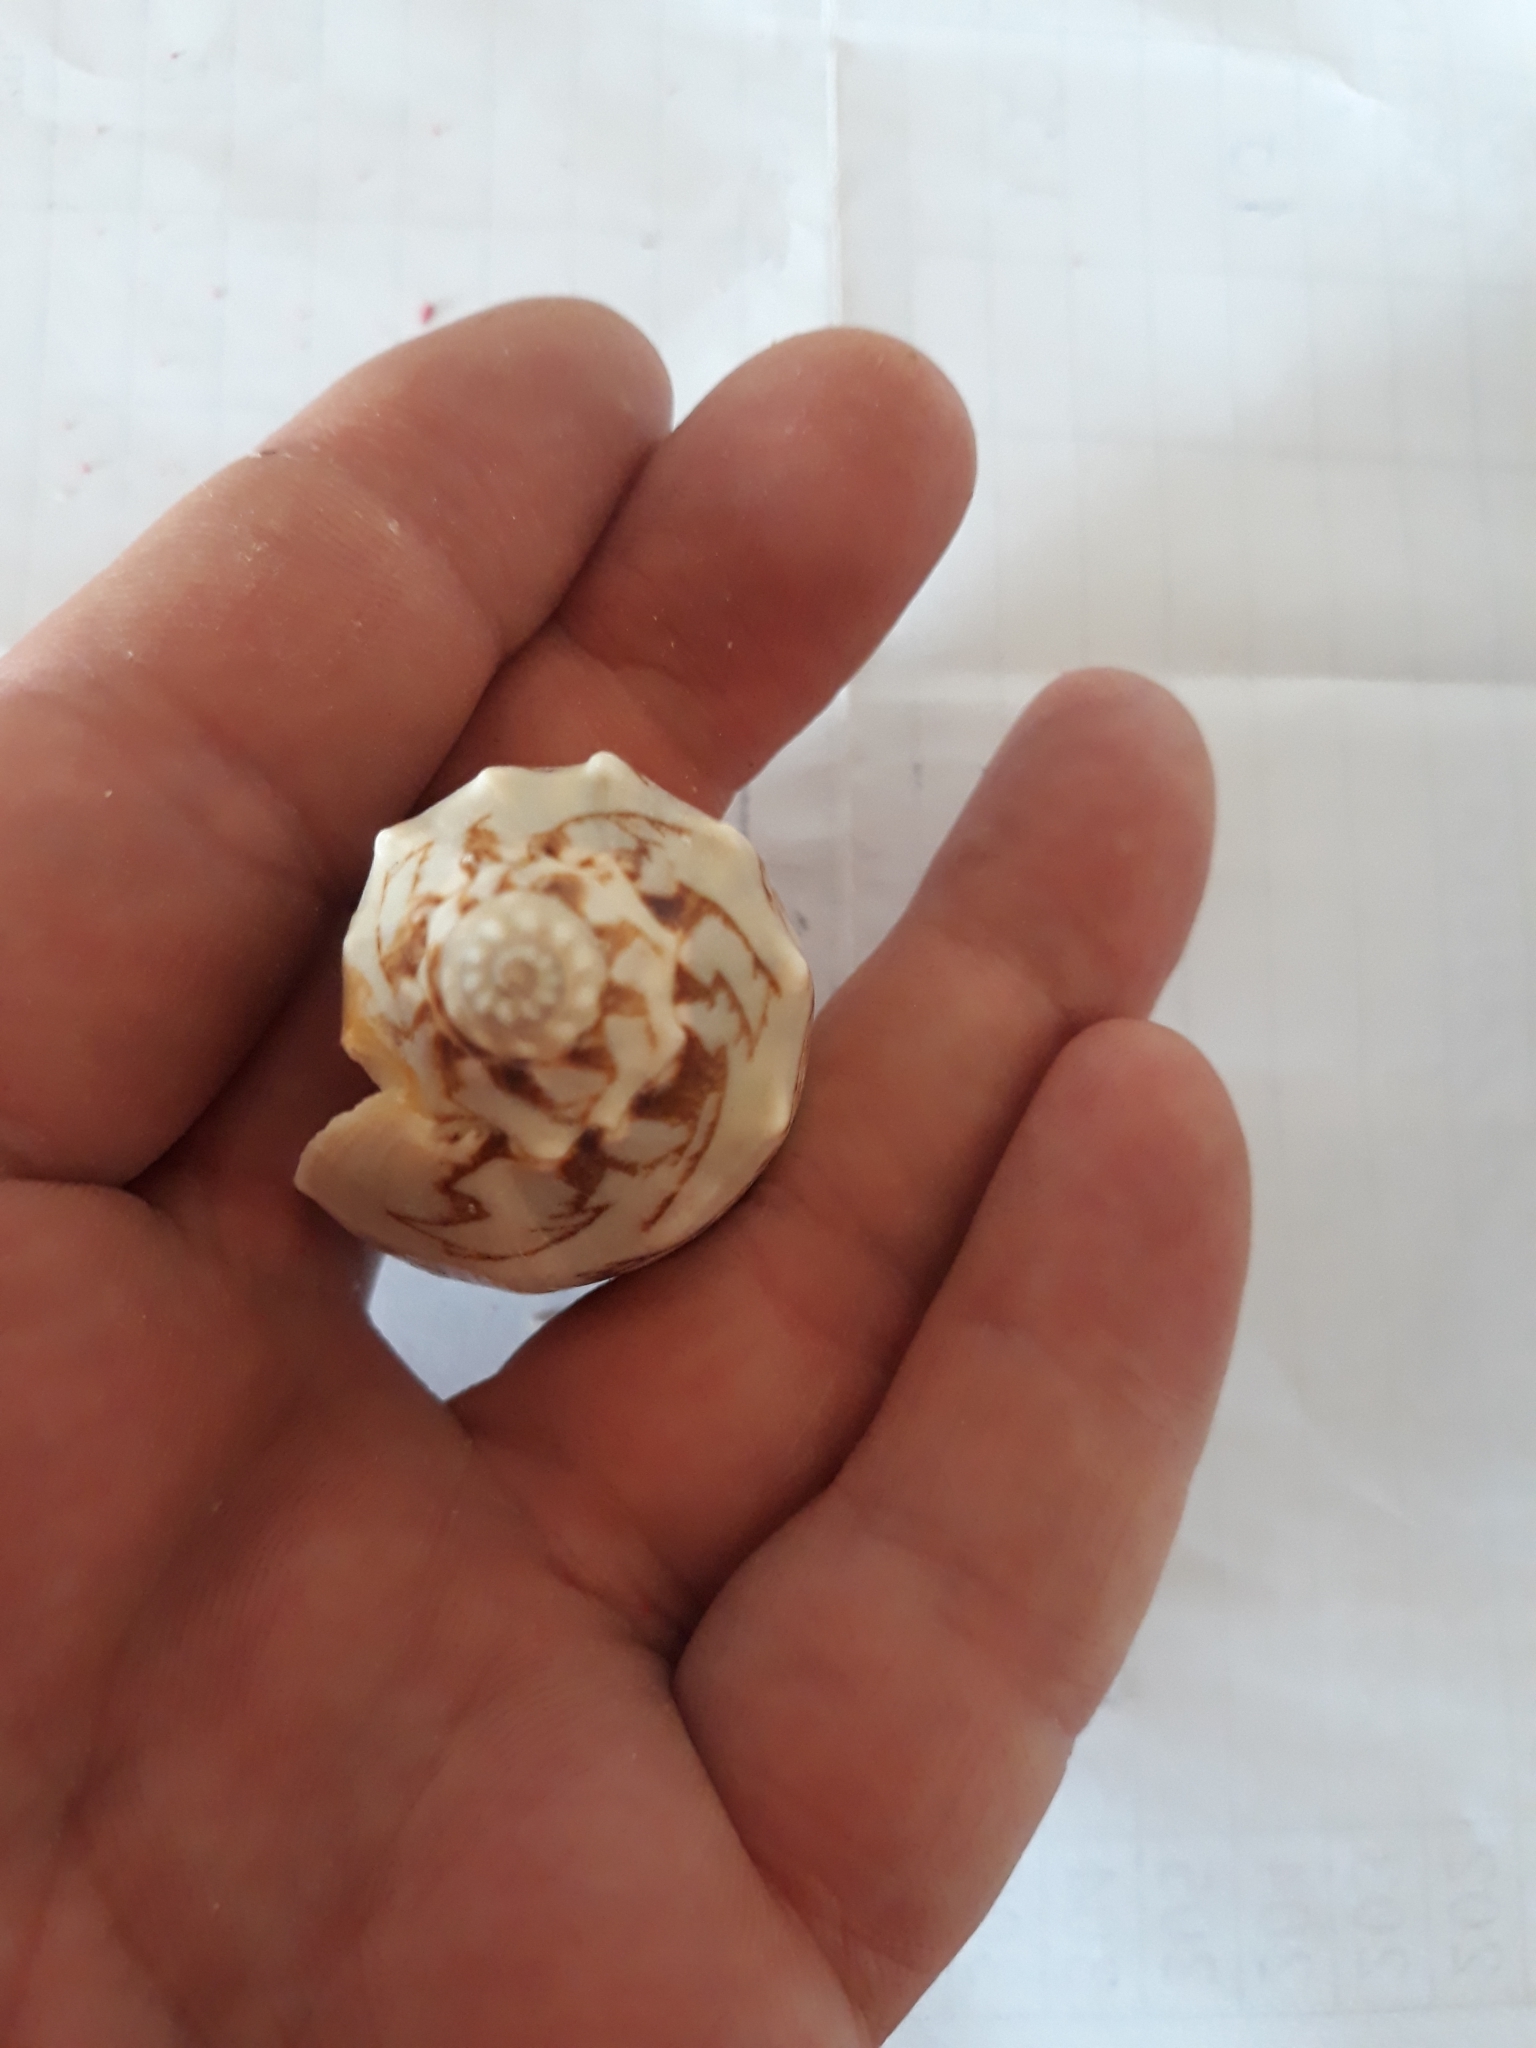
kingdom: Animalia
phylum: Mollusca
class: Gastropoda
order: Neogastropoda
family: Volutidae
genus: Cymbiola
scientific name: Cymbiola vespertilio
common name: Bat volute
